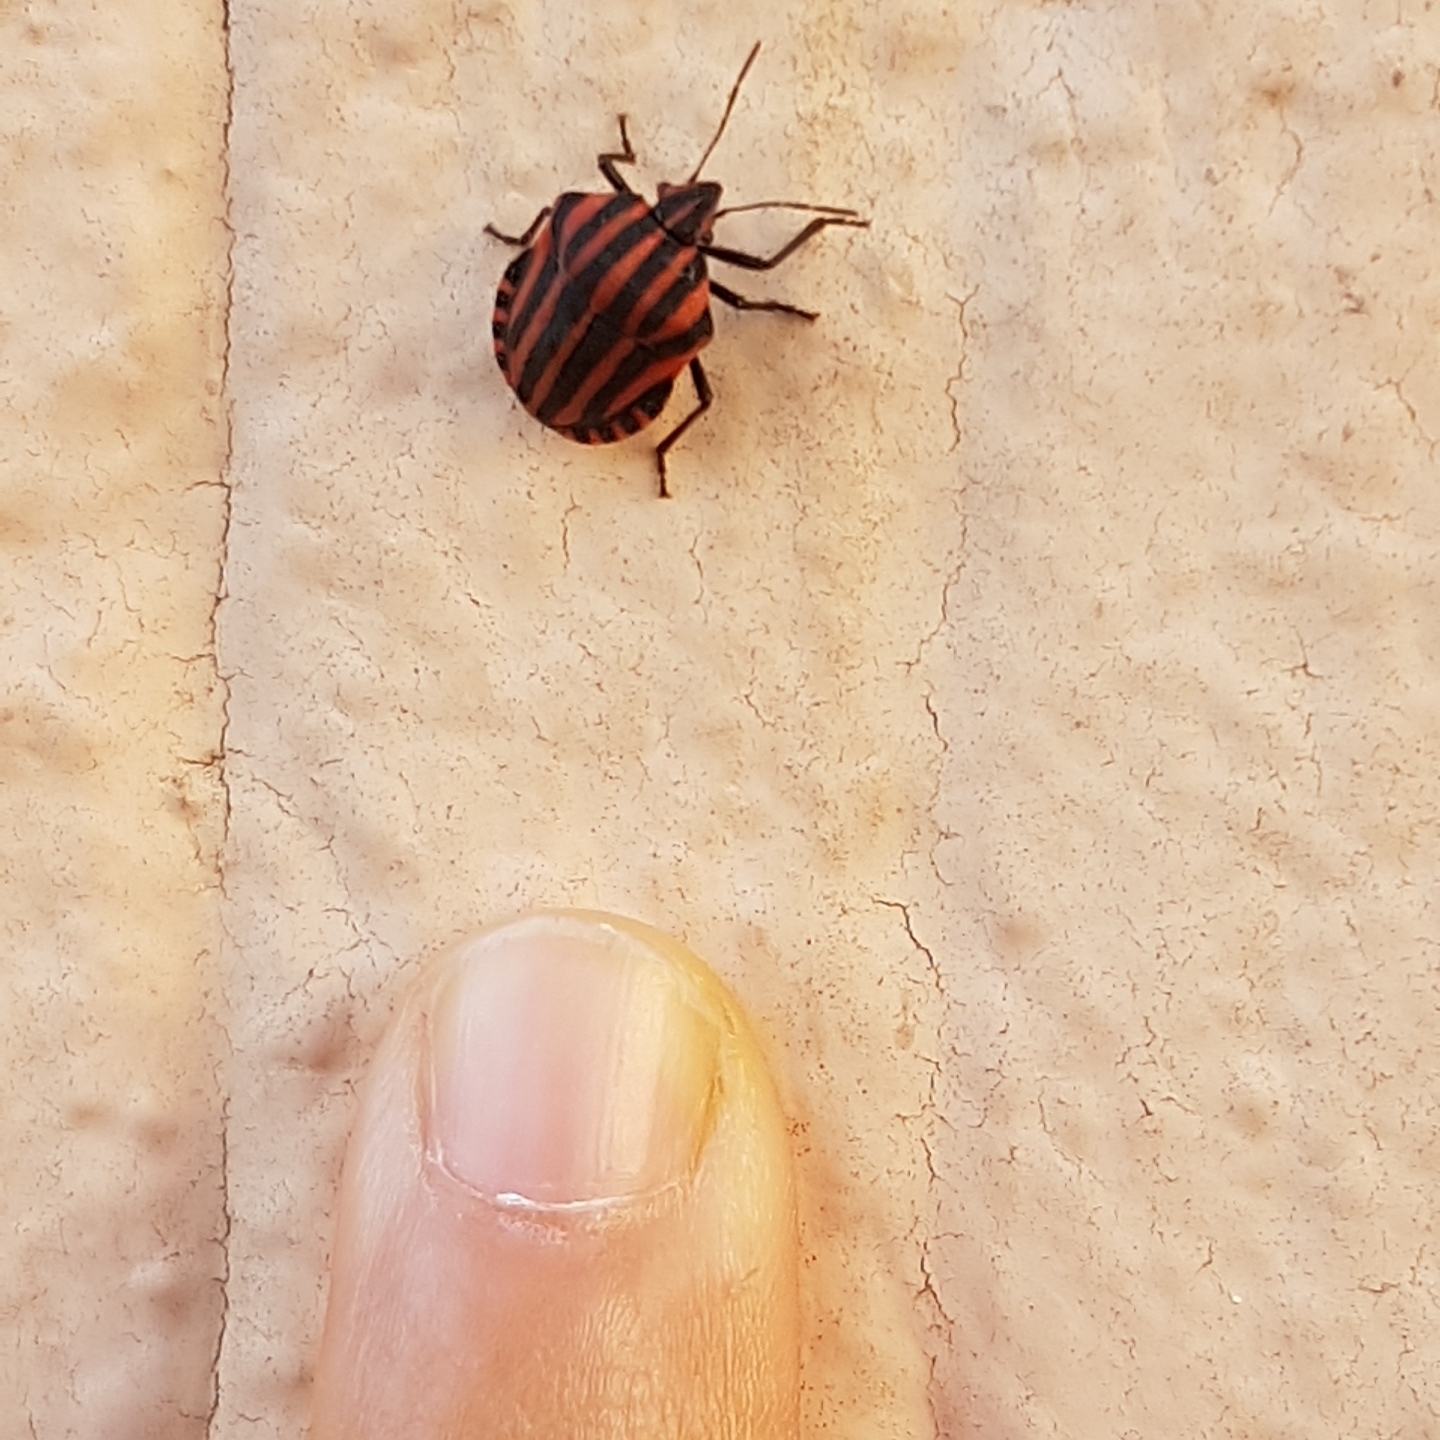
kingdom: Animalia
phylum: Arthropoda
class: Insecta
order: Hemiptera
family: Pentatomidae
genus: Graphosoma
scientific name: Graphosoma italicum
